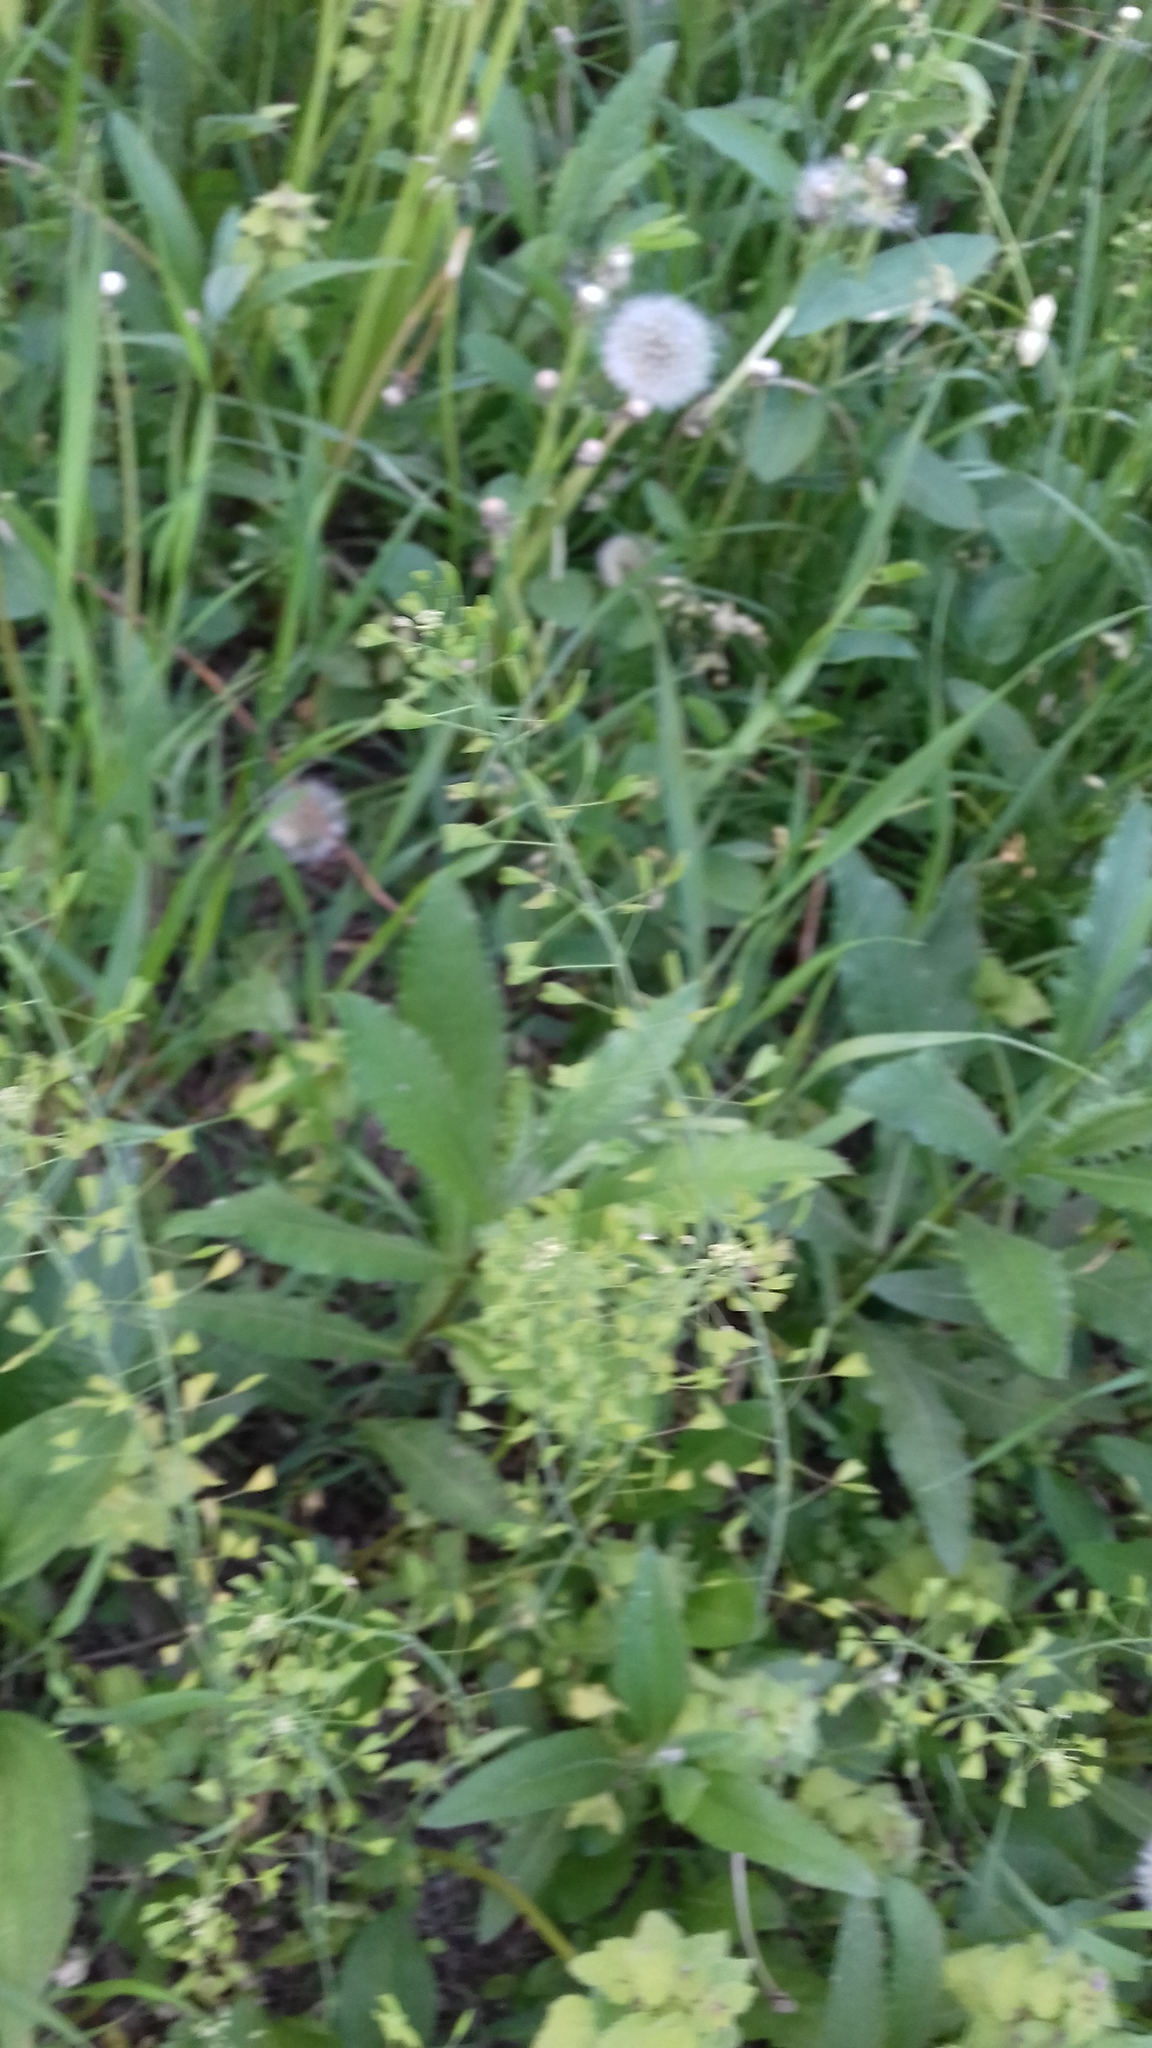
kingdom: Plantae
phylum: Tracheophyta
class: Magnoliopsida
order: Brassicales
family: Brassicaceae
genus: Capsella
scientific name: Capsella bursa-pastoris
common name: Shepherd's purse
